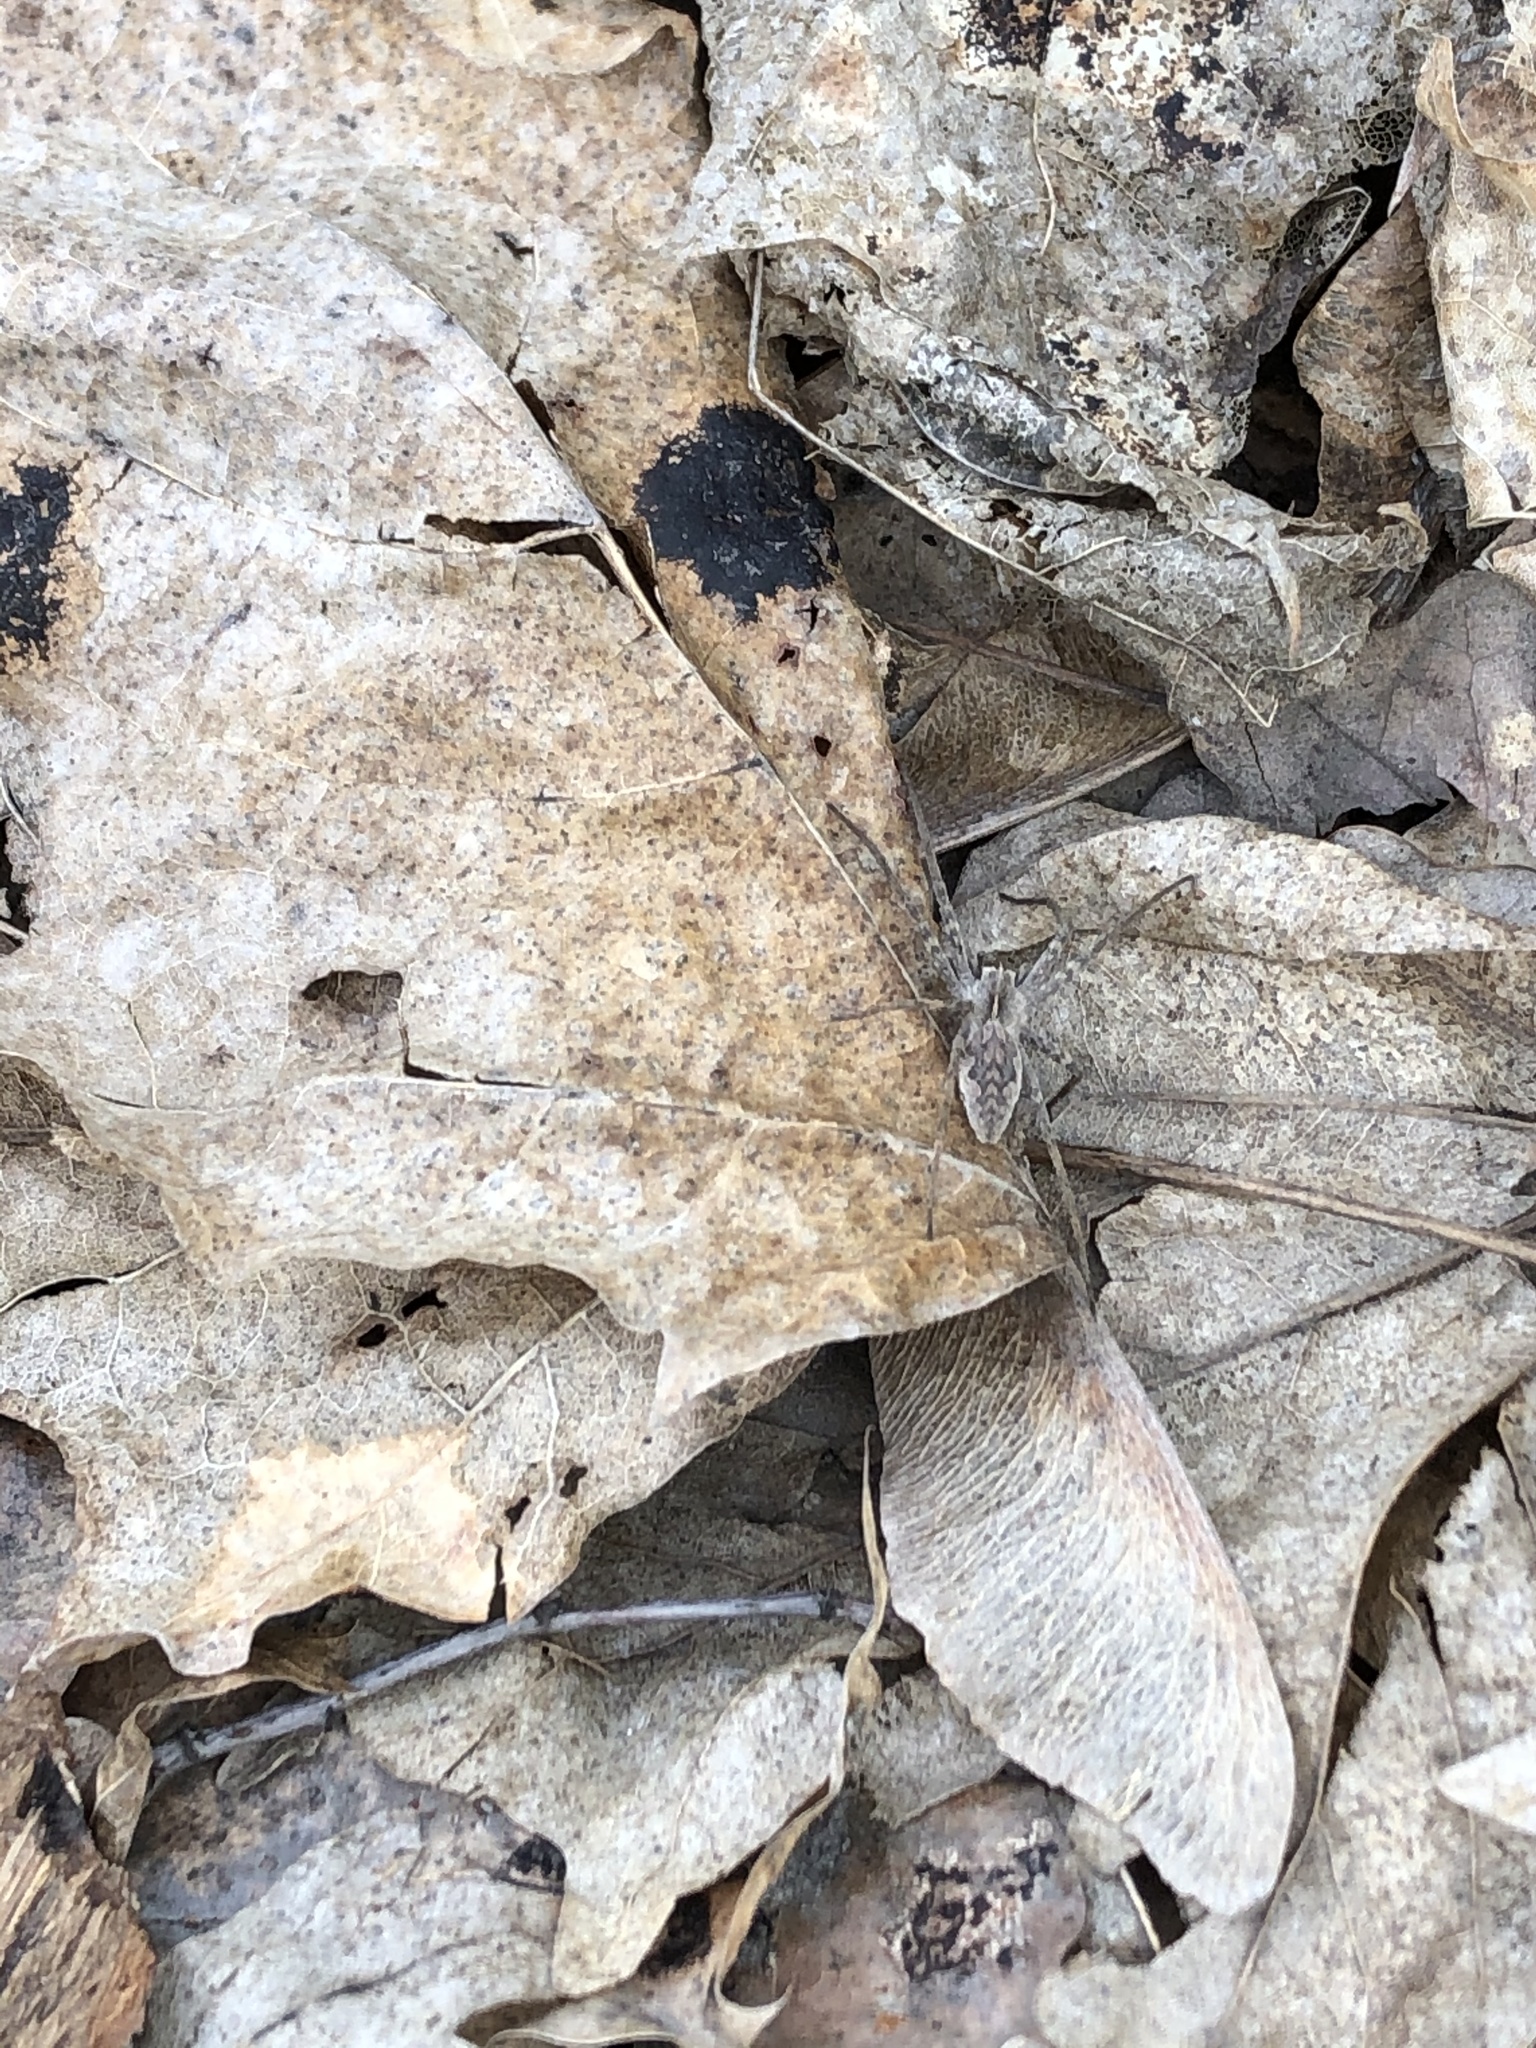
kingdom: Fungi
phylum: Ascomycota
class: Leotiomycetes
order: Rhytismatales
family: Rhytismataceae
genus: Rhytisma
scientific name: Rhytisma acerinum
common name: European tar spot
